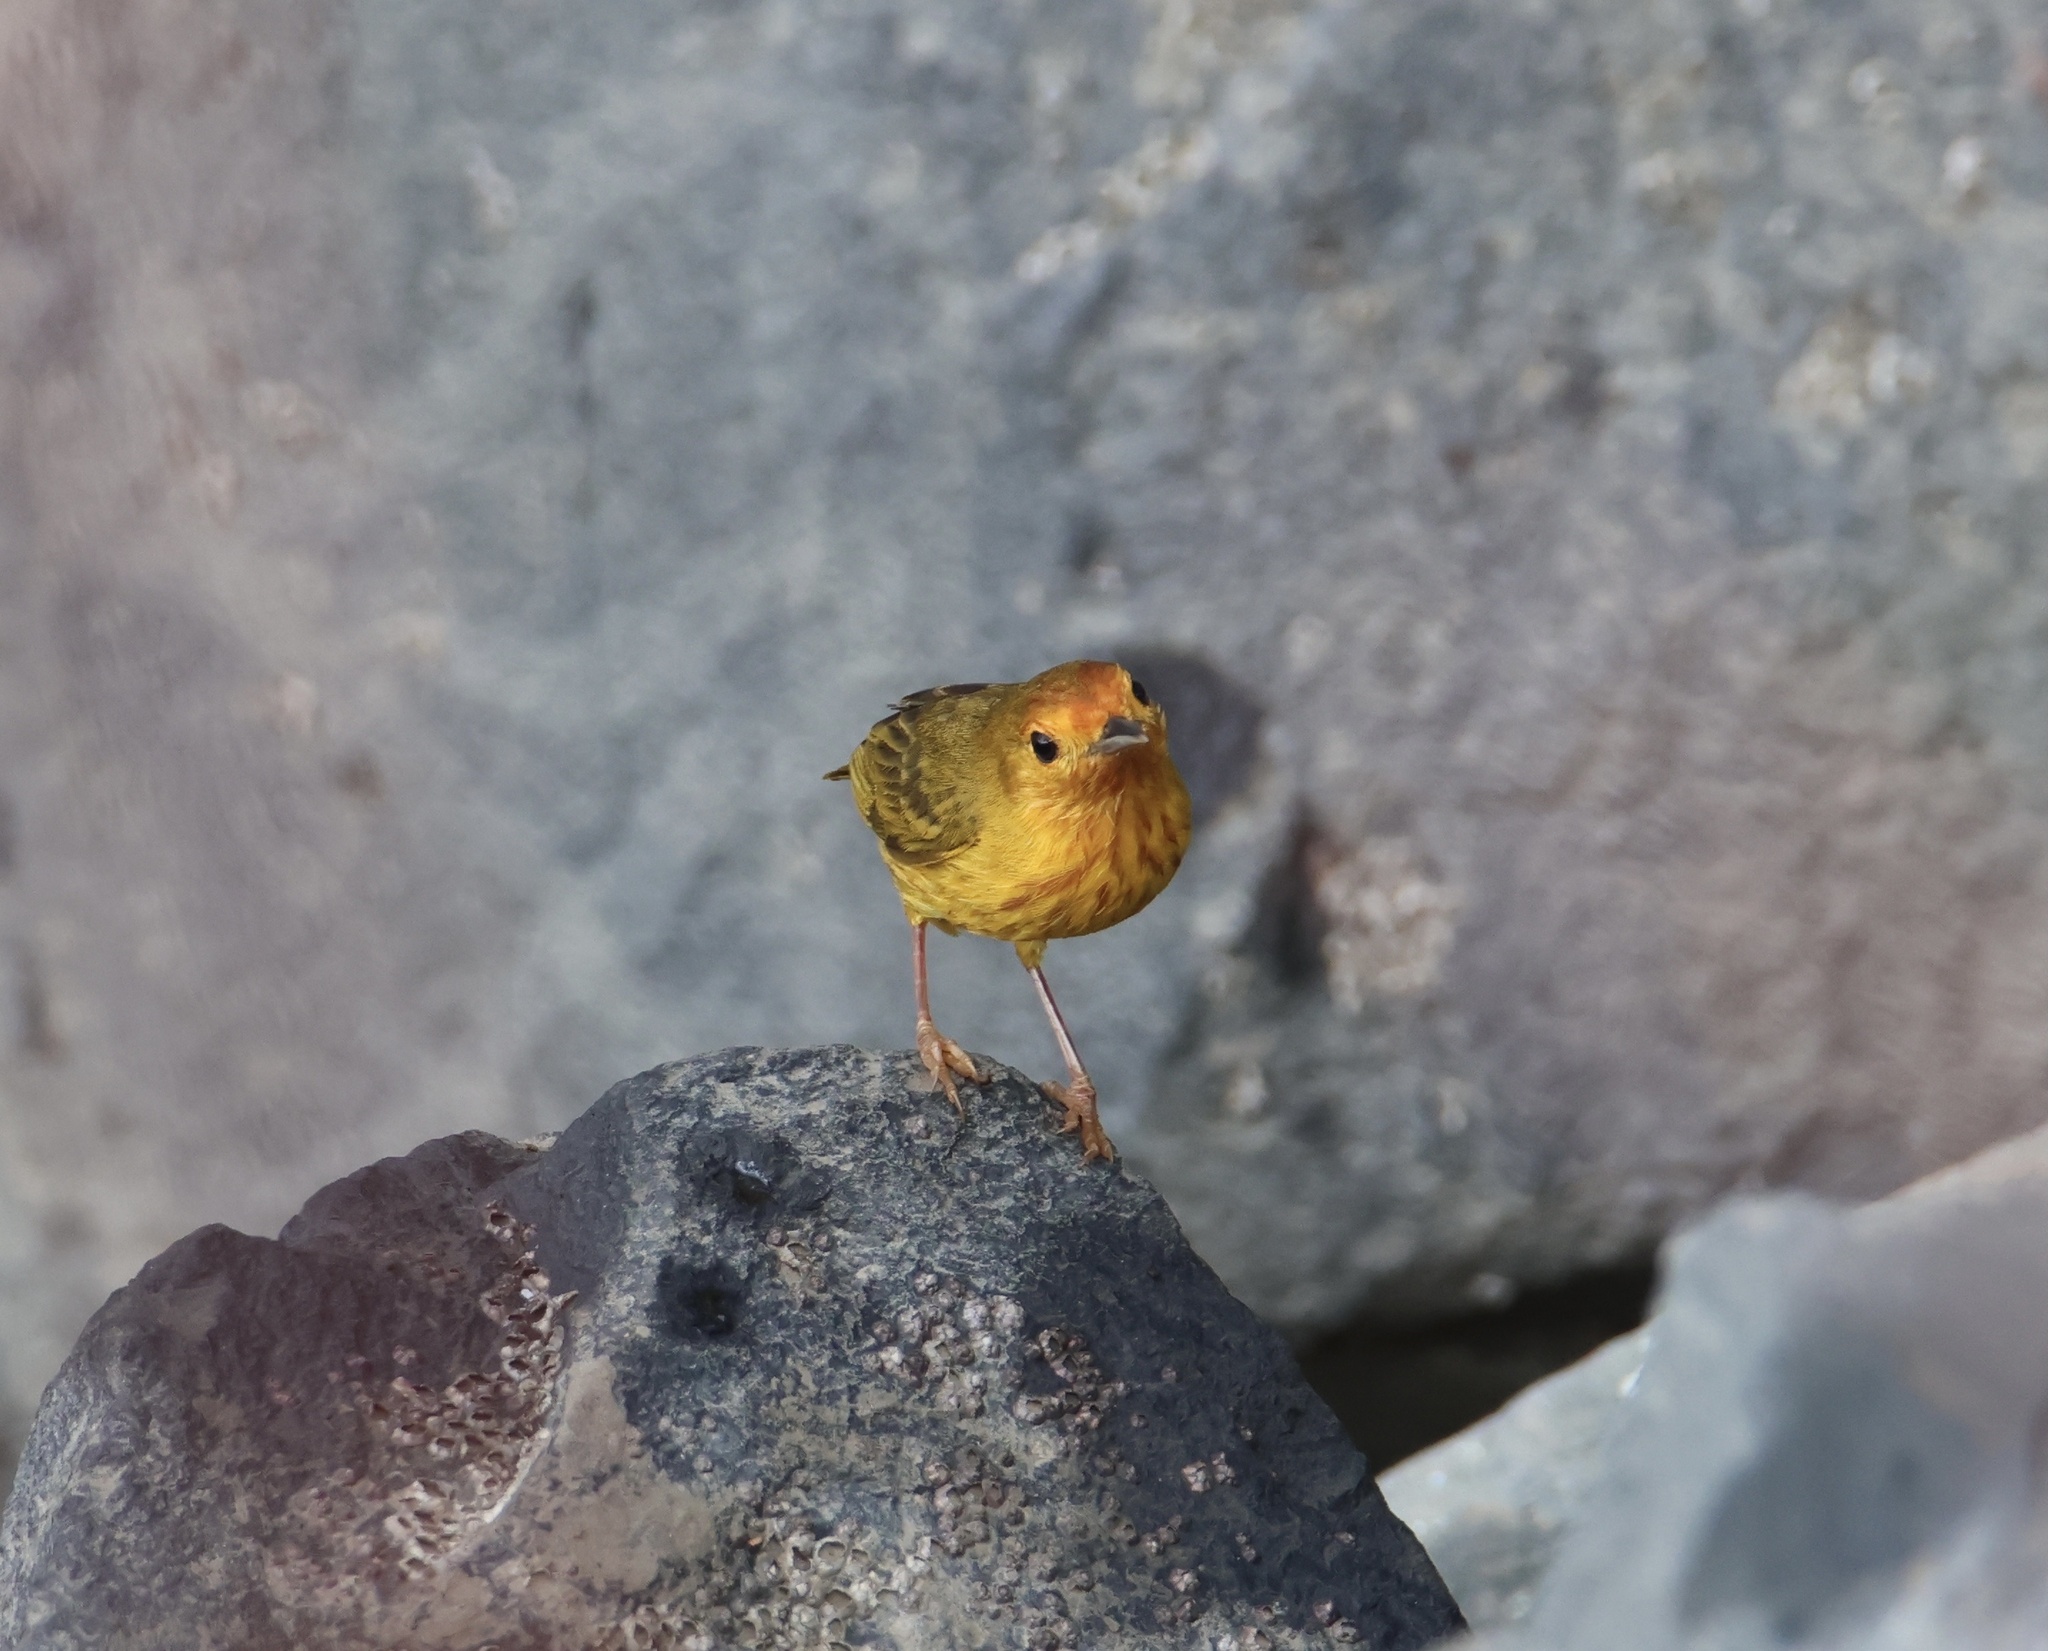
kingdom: Animalia
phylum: Chordata
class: Aves
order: Passeriformes
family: Parulidae
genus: Setophaga
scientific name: Setophaga petechia
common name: Yellow warbler
